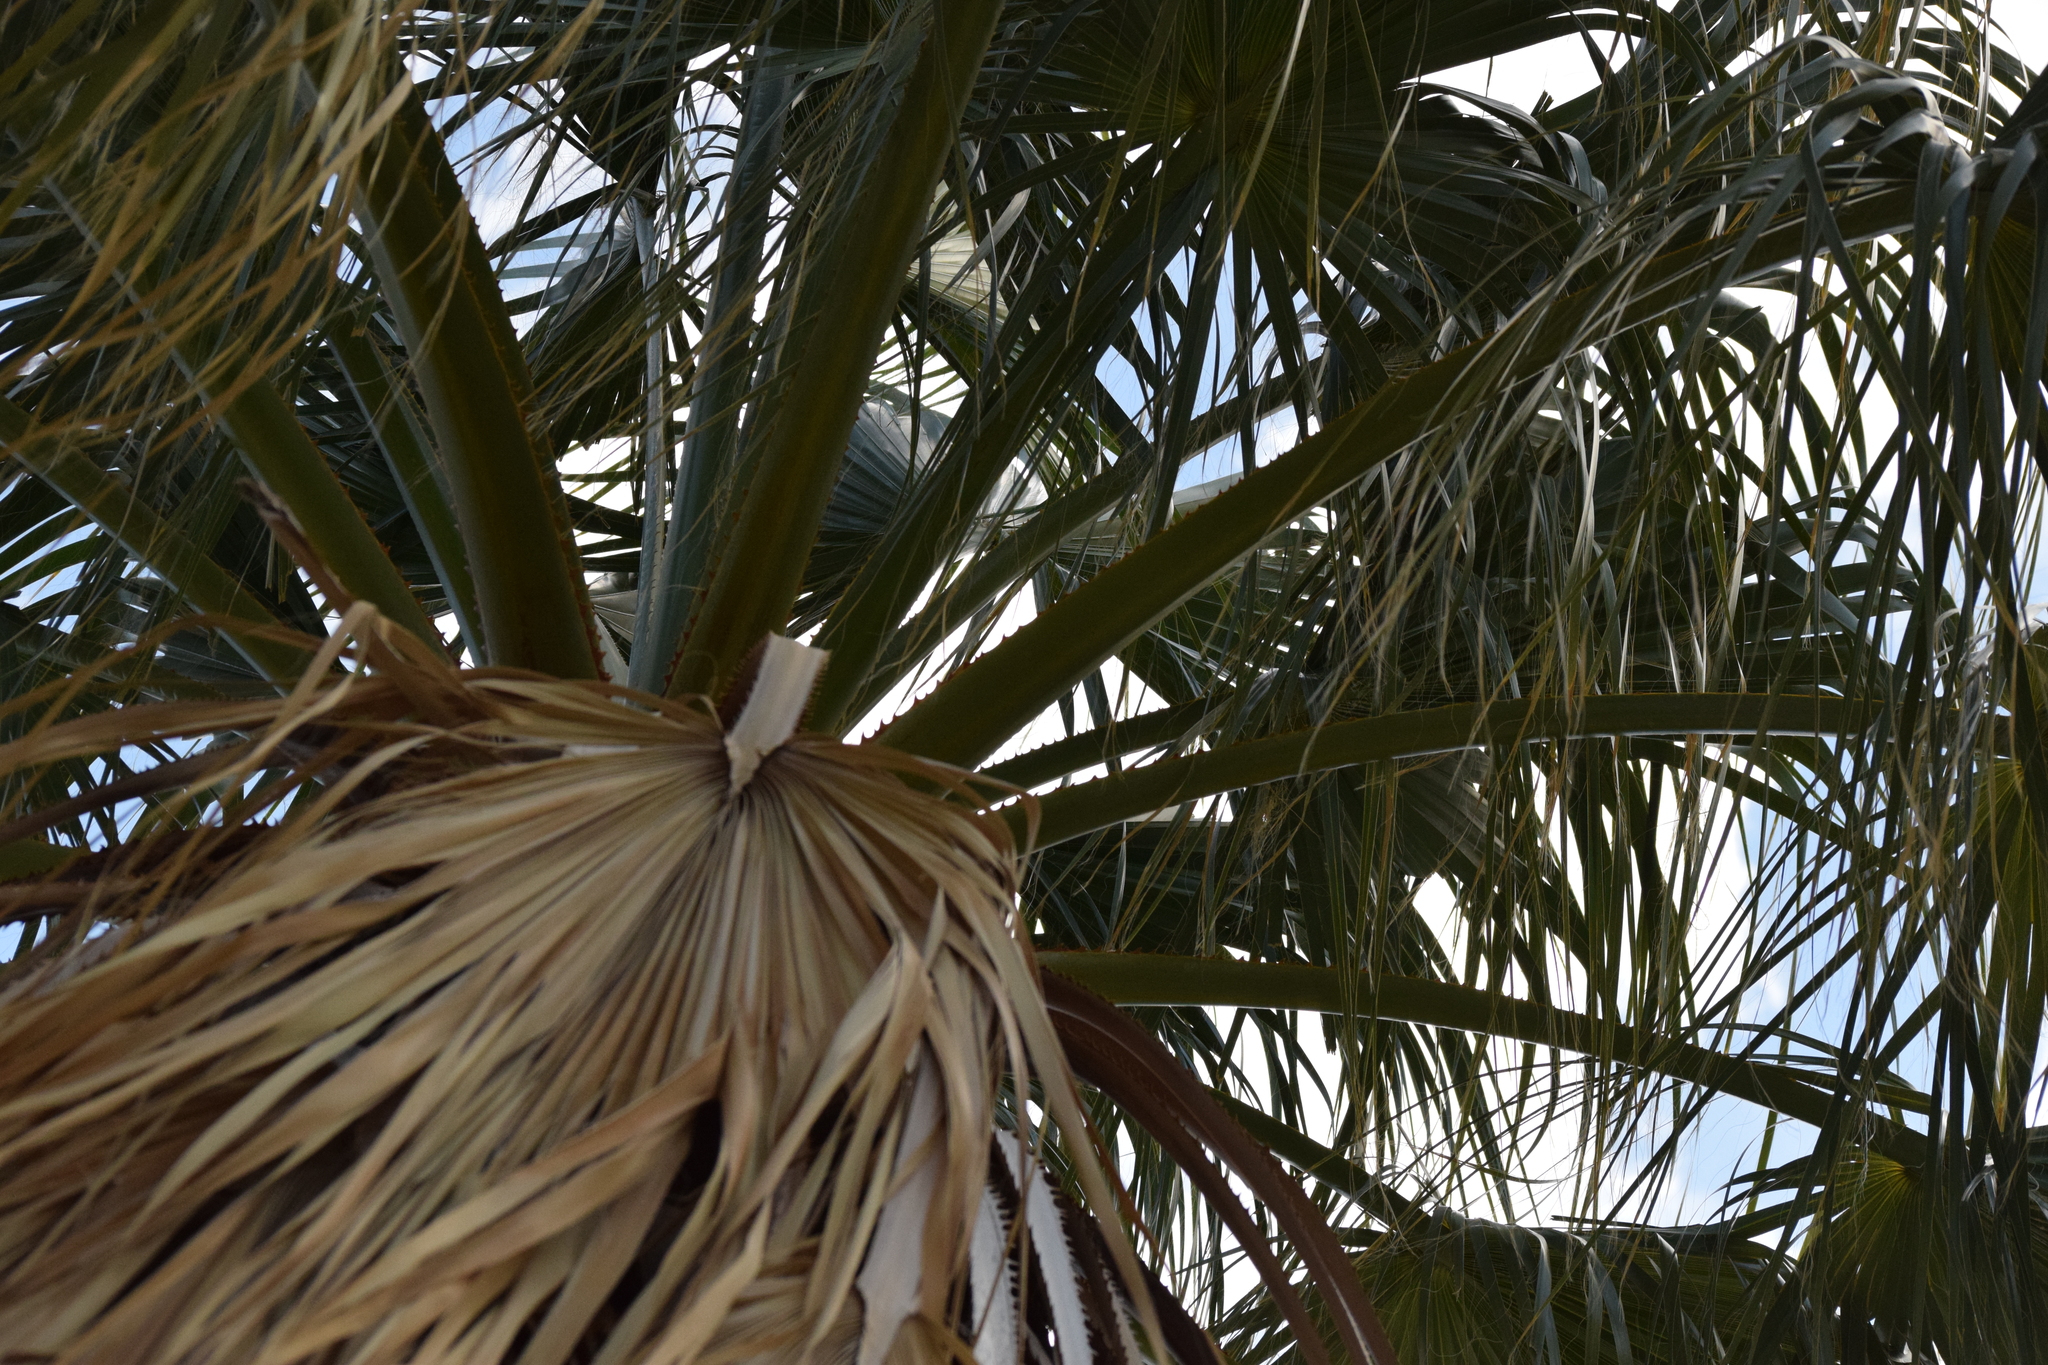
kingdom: Plantae
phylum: Tracheophyta
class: Liliopsida
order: Arecales
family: Arecaceae
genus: Washingtonia
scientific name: Washingtonia filifera
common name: California fan palm
